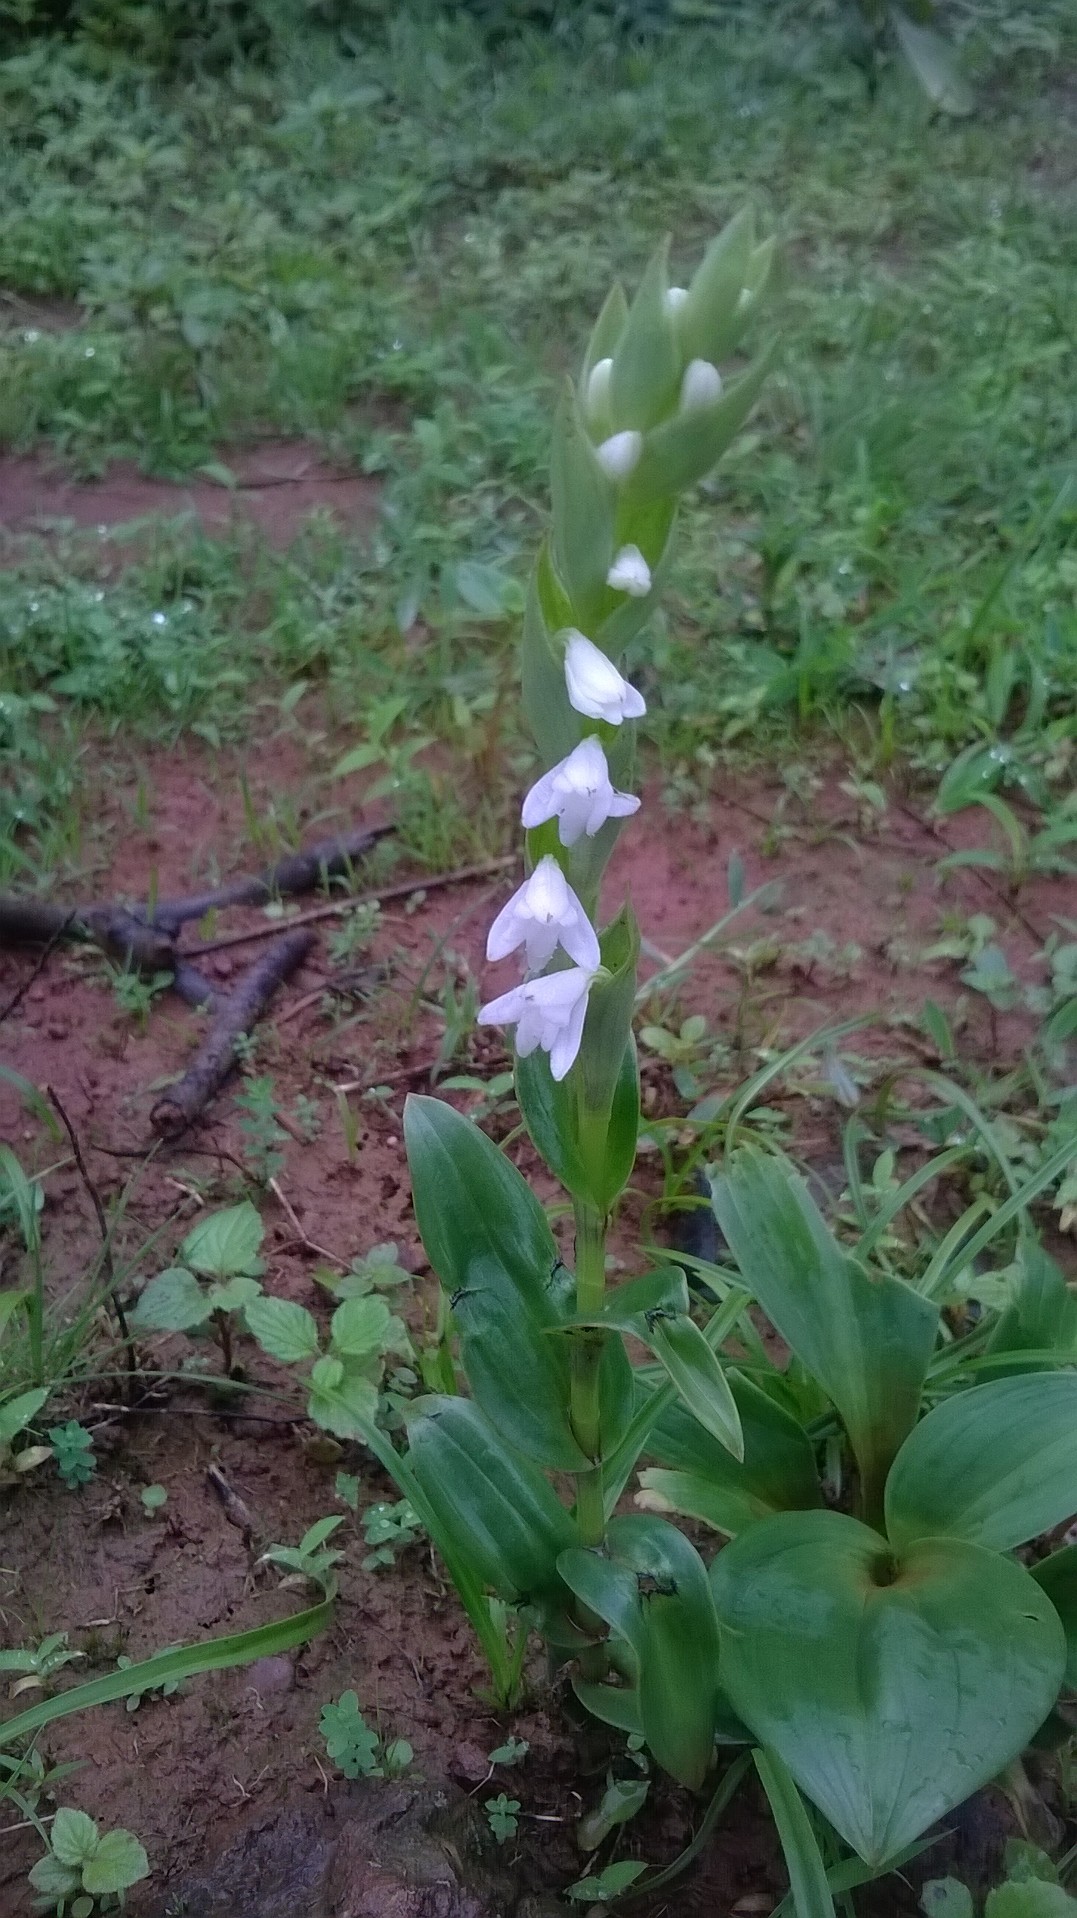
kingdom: Plantae
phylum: Tracheophyta
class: Liliopsida
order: Asparagales
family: Orchidaceae
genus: Habenaria
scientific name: Habenaria heyneana
